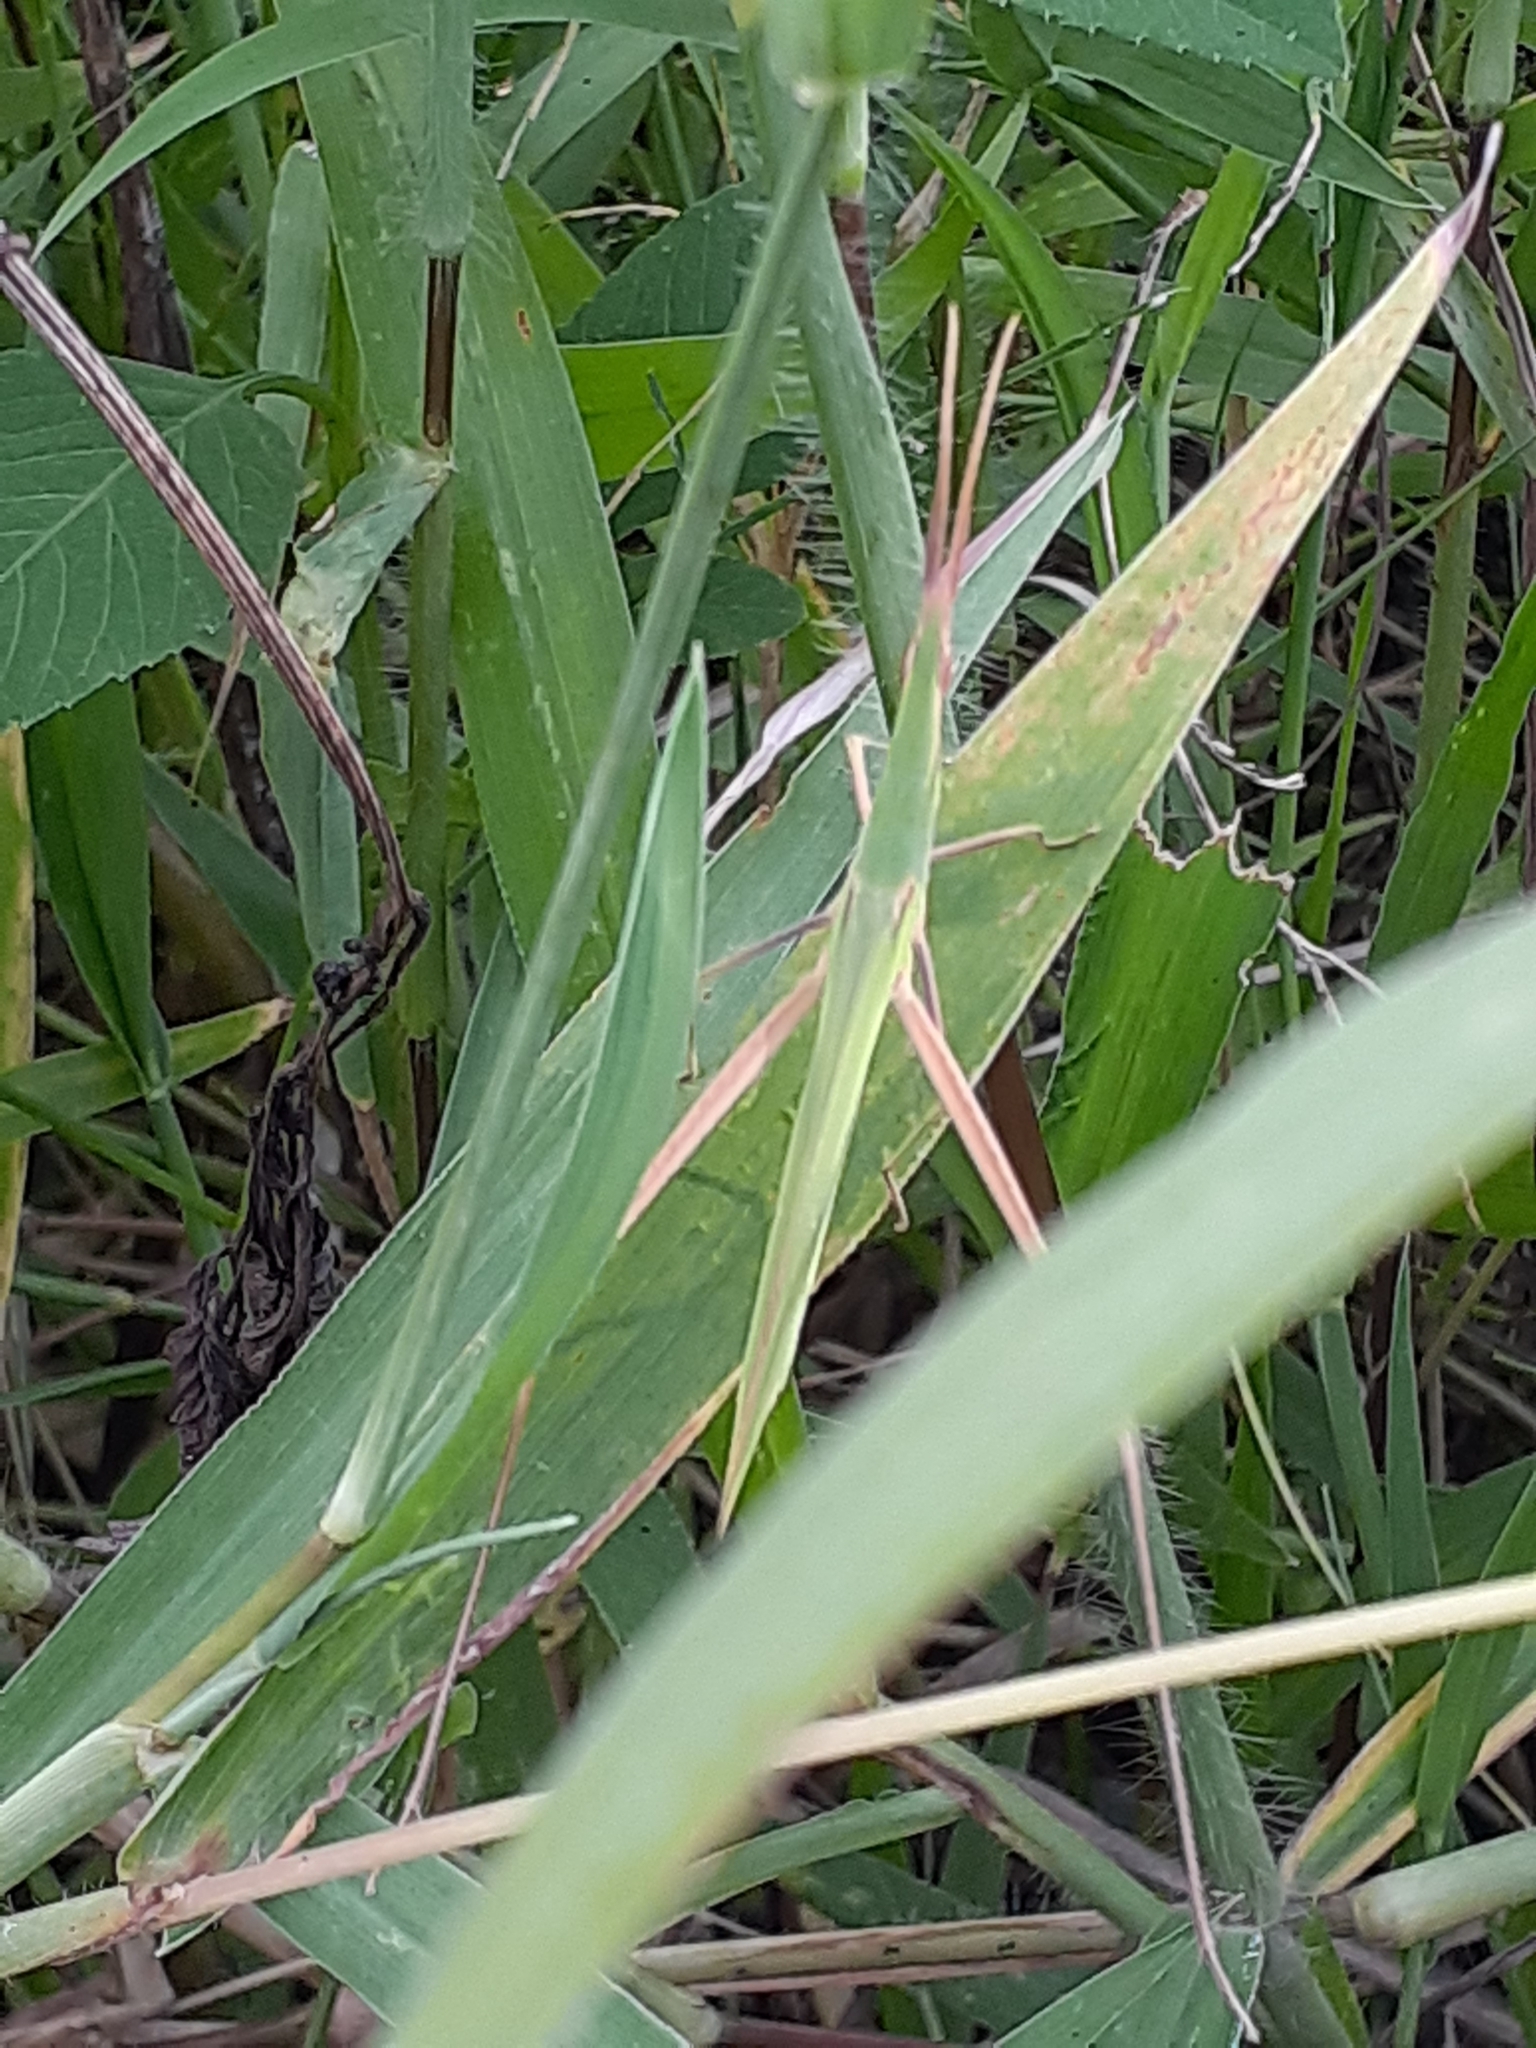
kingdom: Animalia
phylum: Arthropoda
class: Insecta
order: Orthoptera
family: Acrididae
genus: Acrida
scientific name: Acrida cinerea
